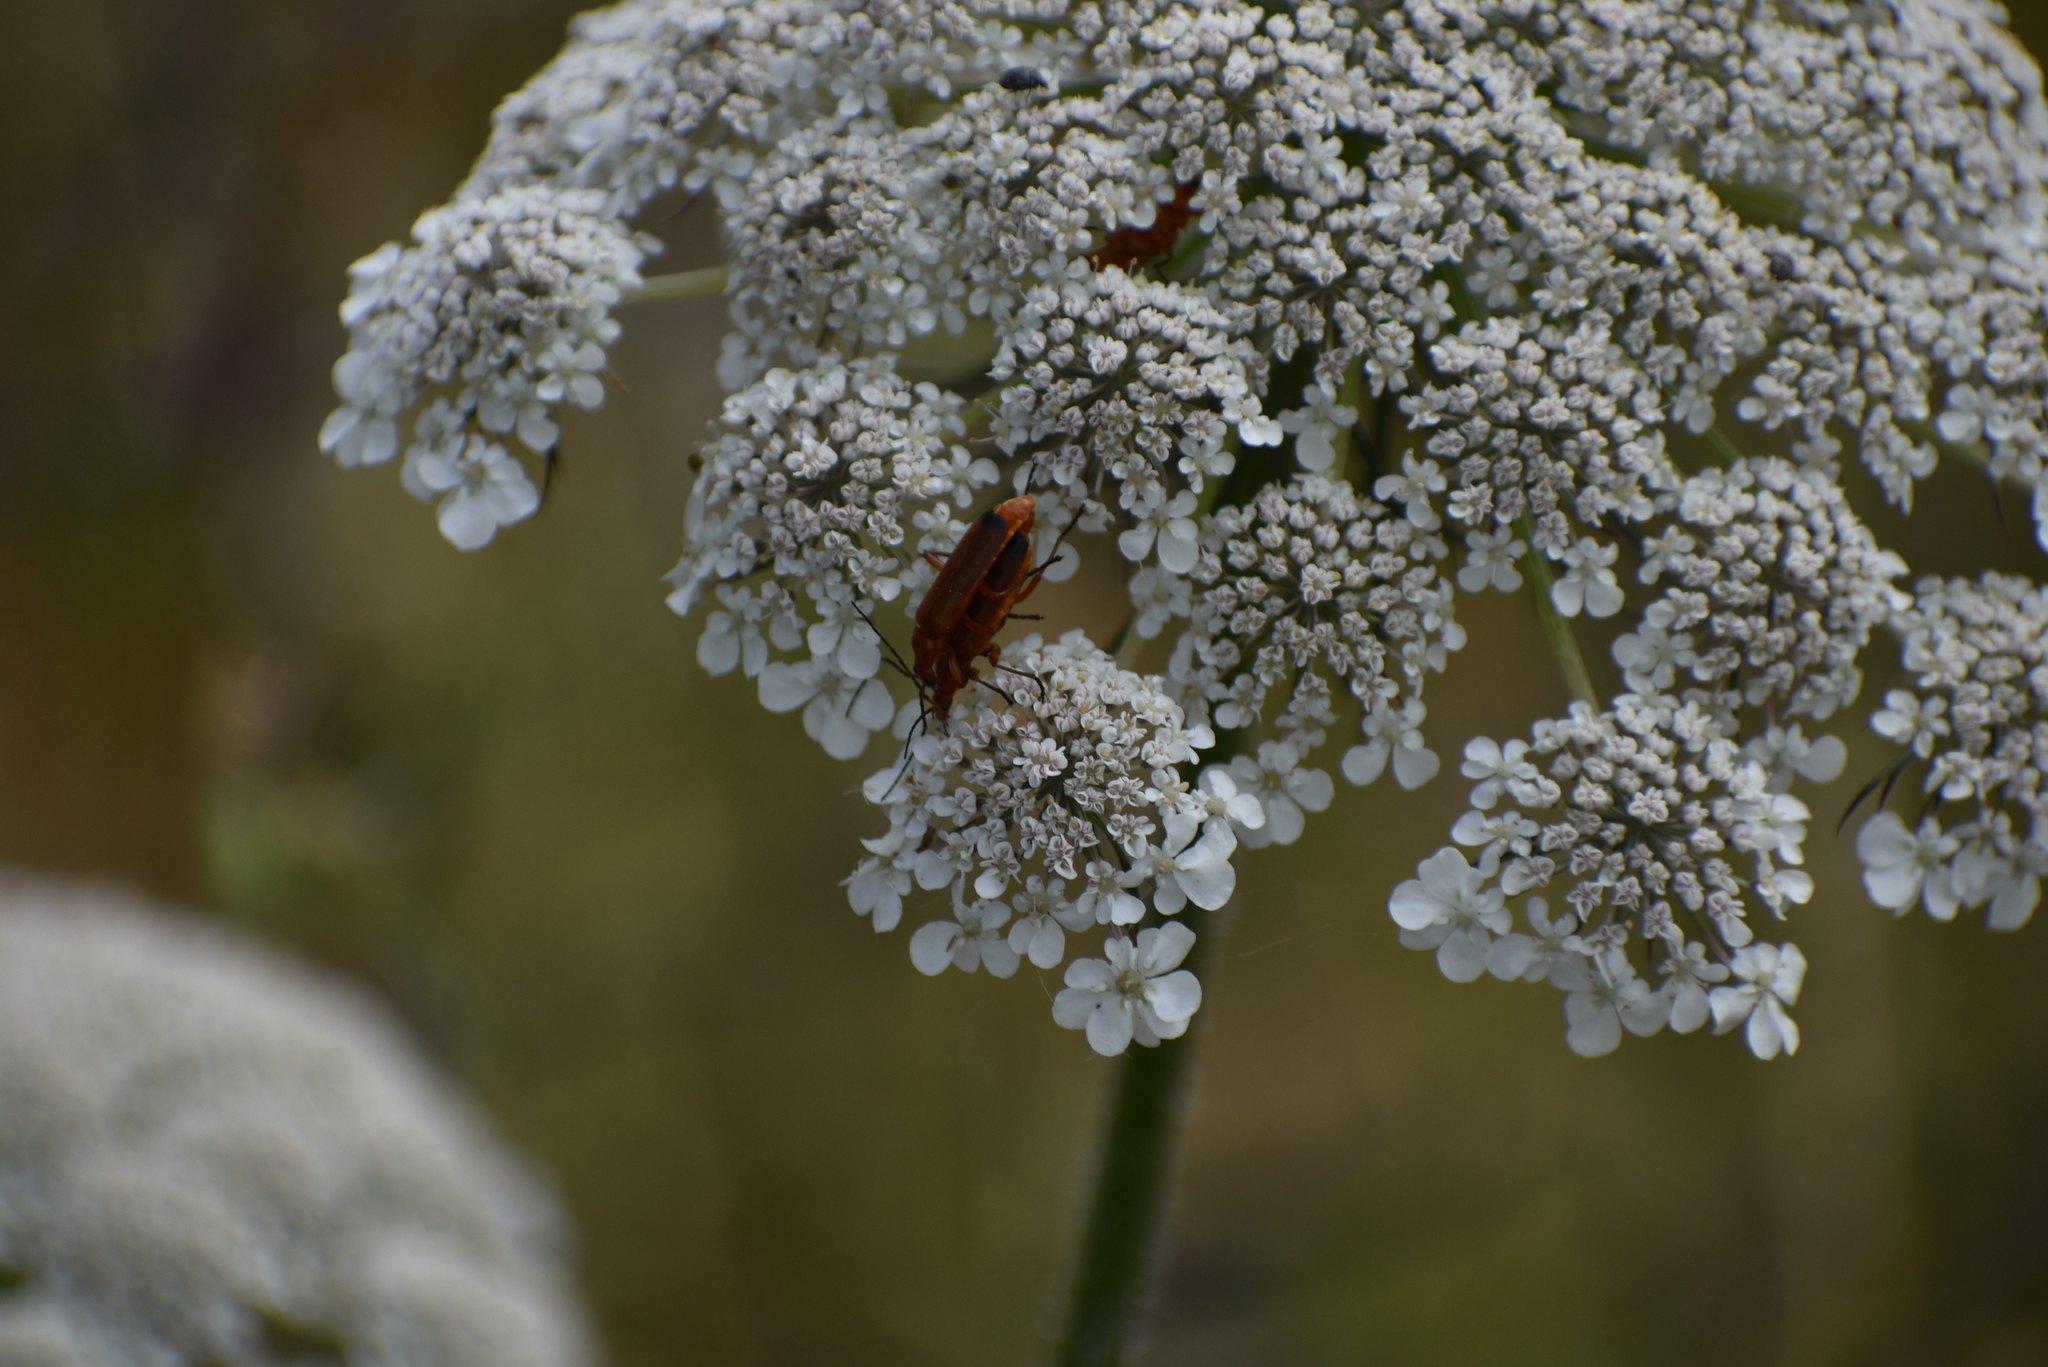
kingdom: Animalia
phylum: Arthropoda
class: Insecta
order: Coleoptera
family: Cantharidae
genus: Rhagonycha
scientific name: Rhagonycha fulva
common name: Common red soldier beetle
